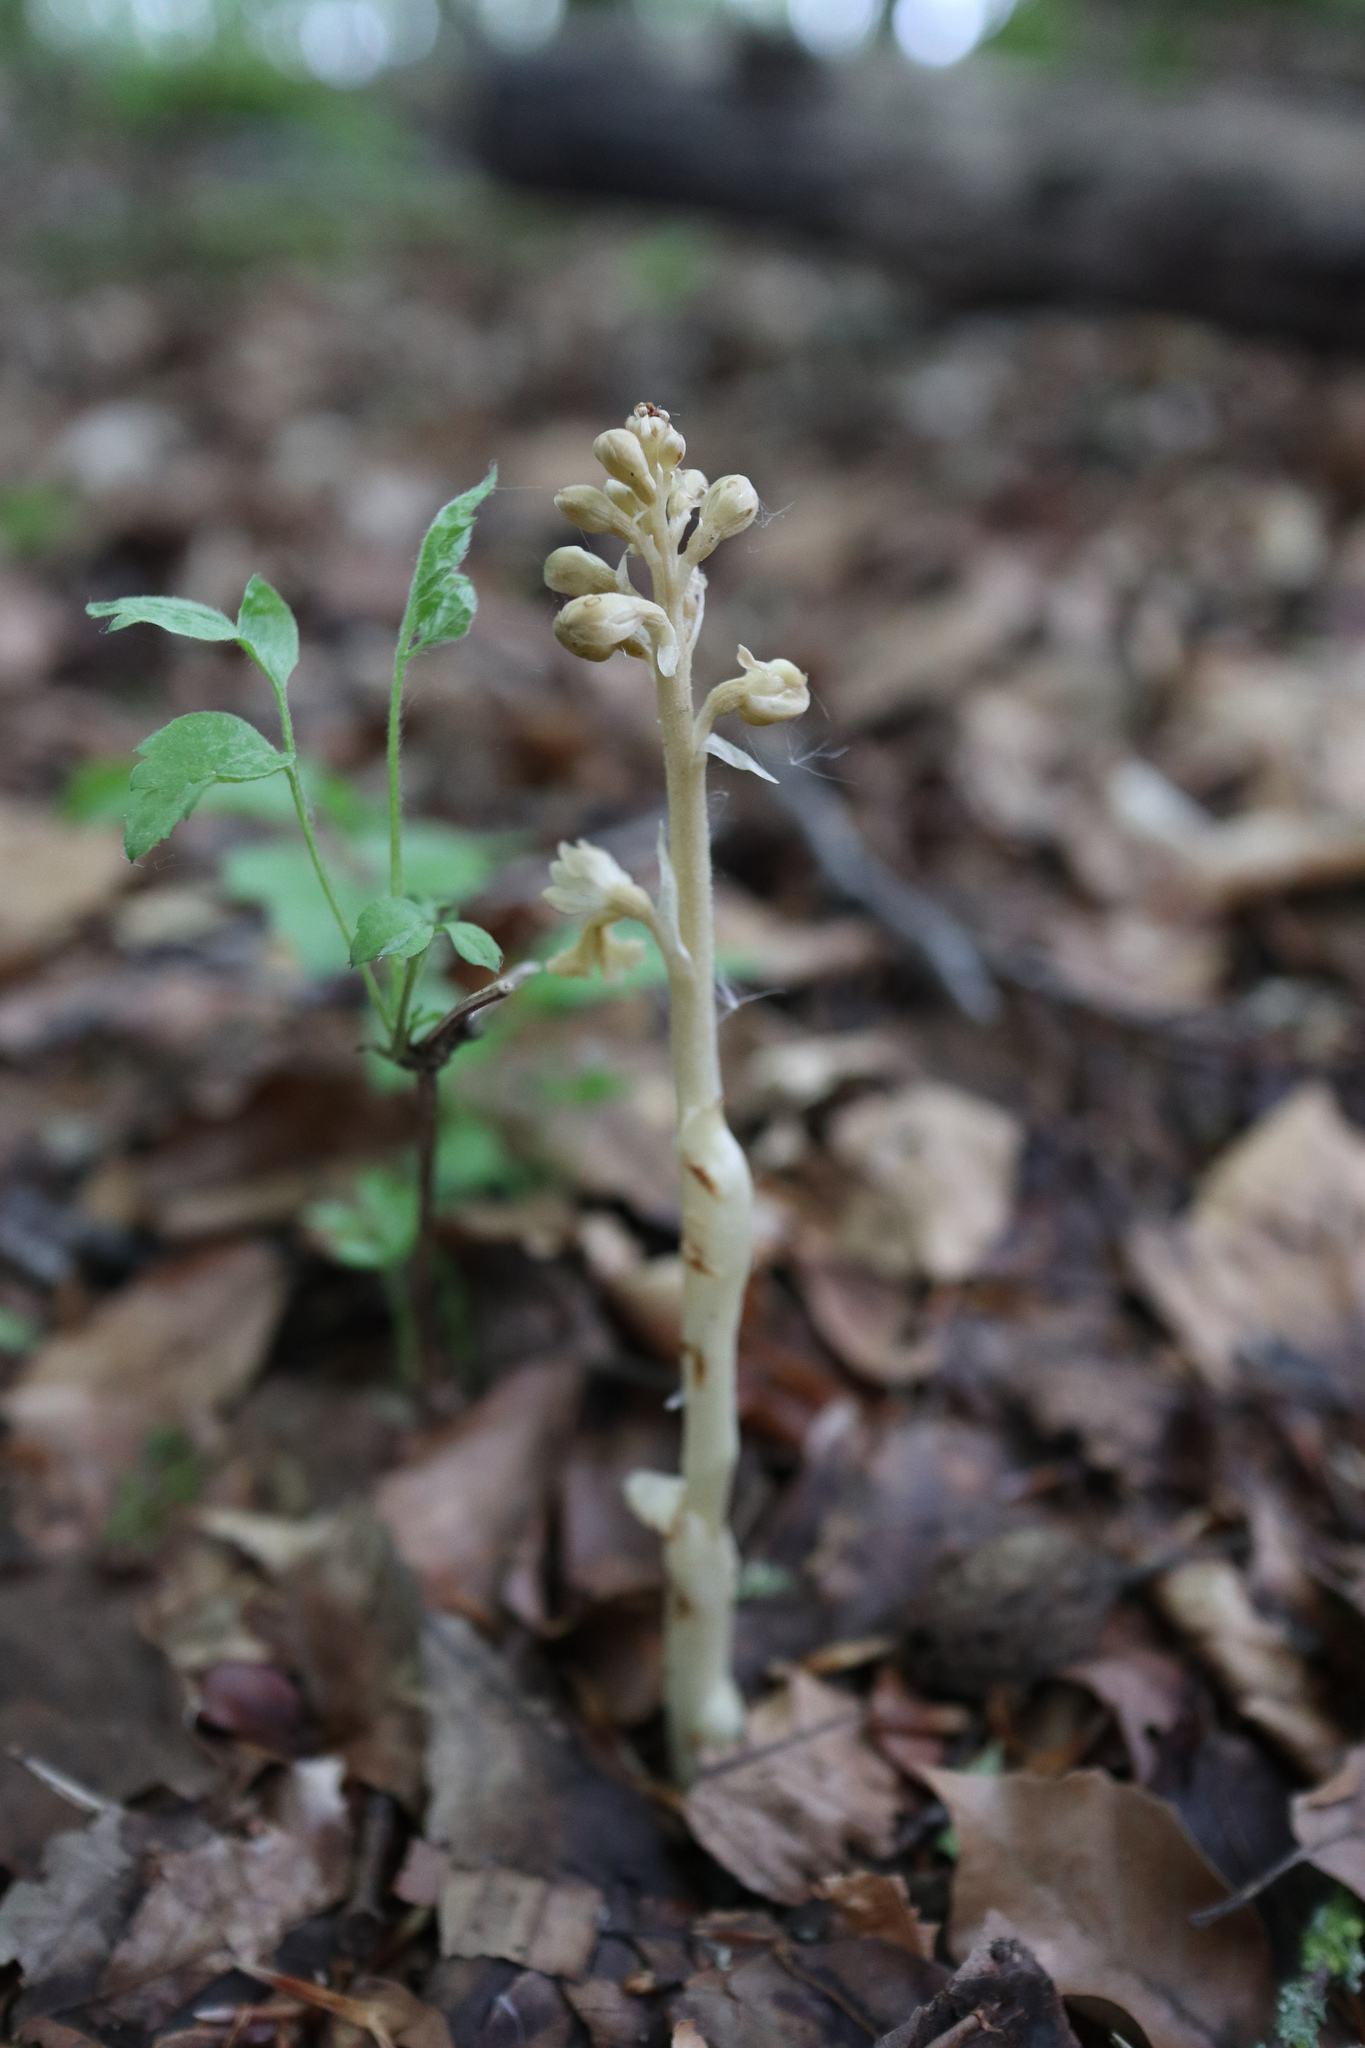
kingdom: Plantae
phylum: Tracheophyta
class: Liliopsida
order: Asparagales
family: Orchidaceae
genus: Neottia
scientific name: Neottia nidus-avis
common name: Bird's-nest orchid
